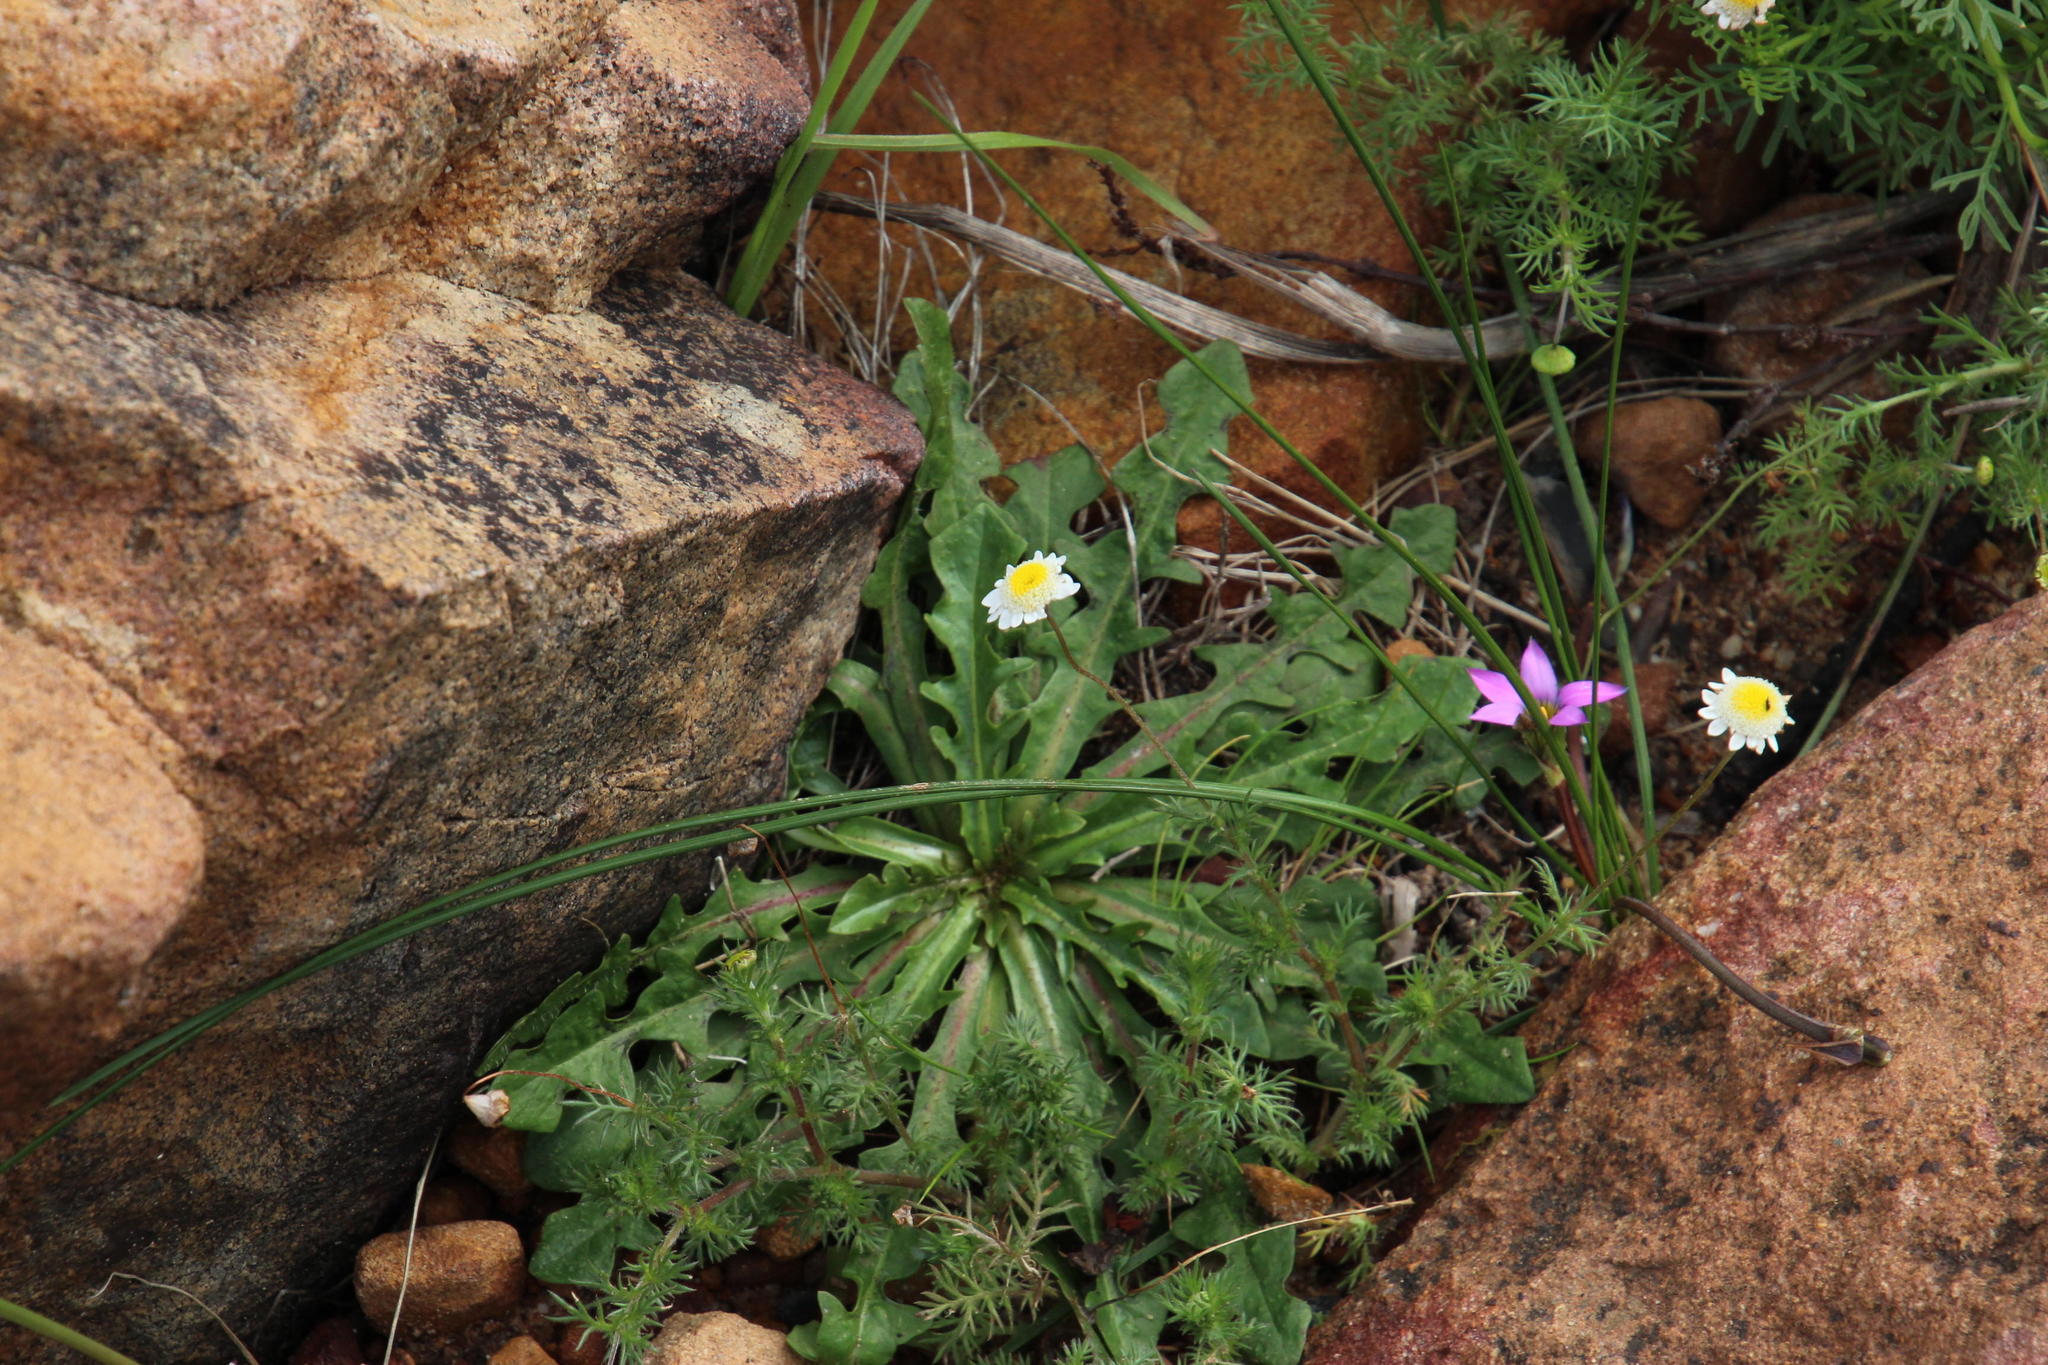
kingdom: Plantae
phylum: Tracheophyta
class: Magnoliopsida
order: Asterales
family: Asteraceae
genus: Hypochaeris
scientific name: Hypochaeris radicata
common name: Flatweed
